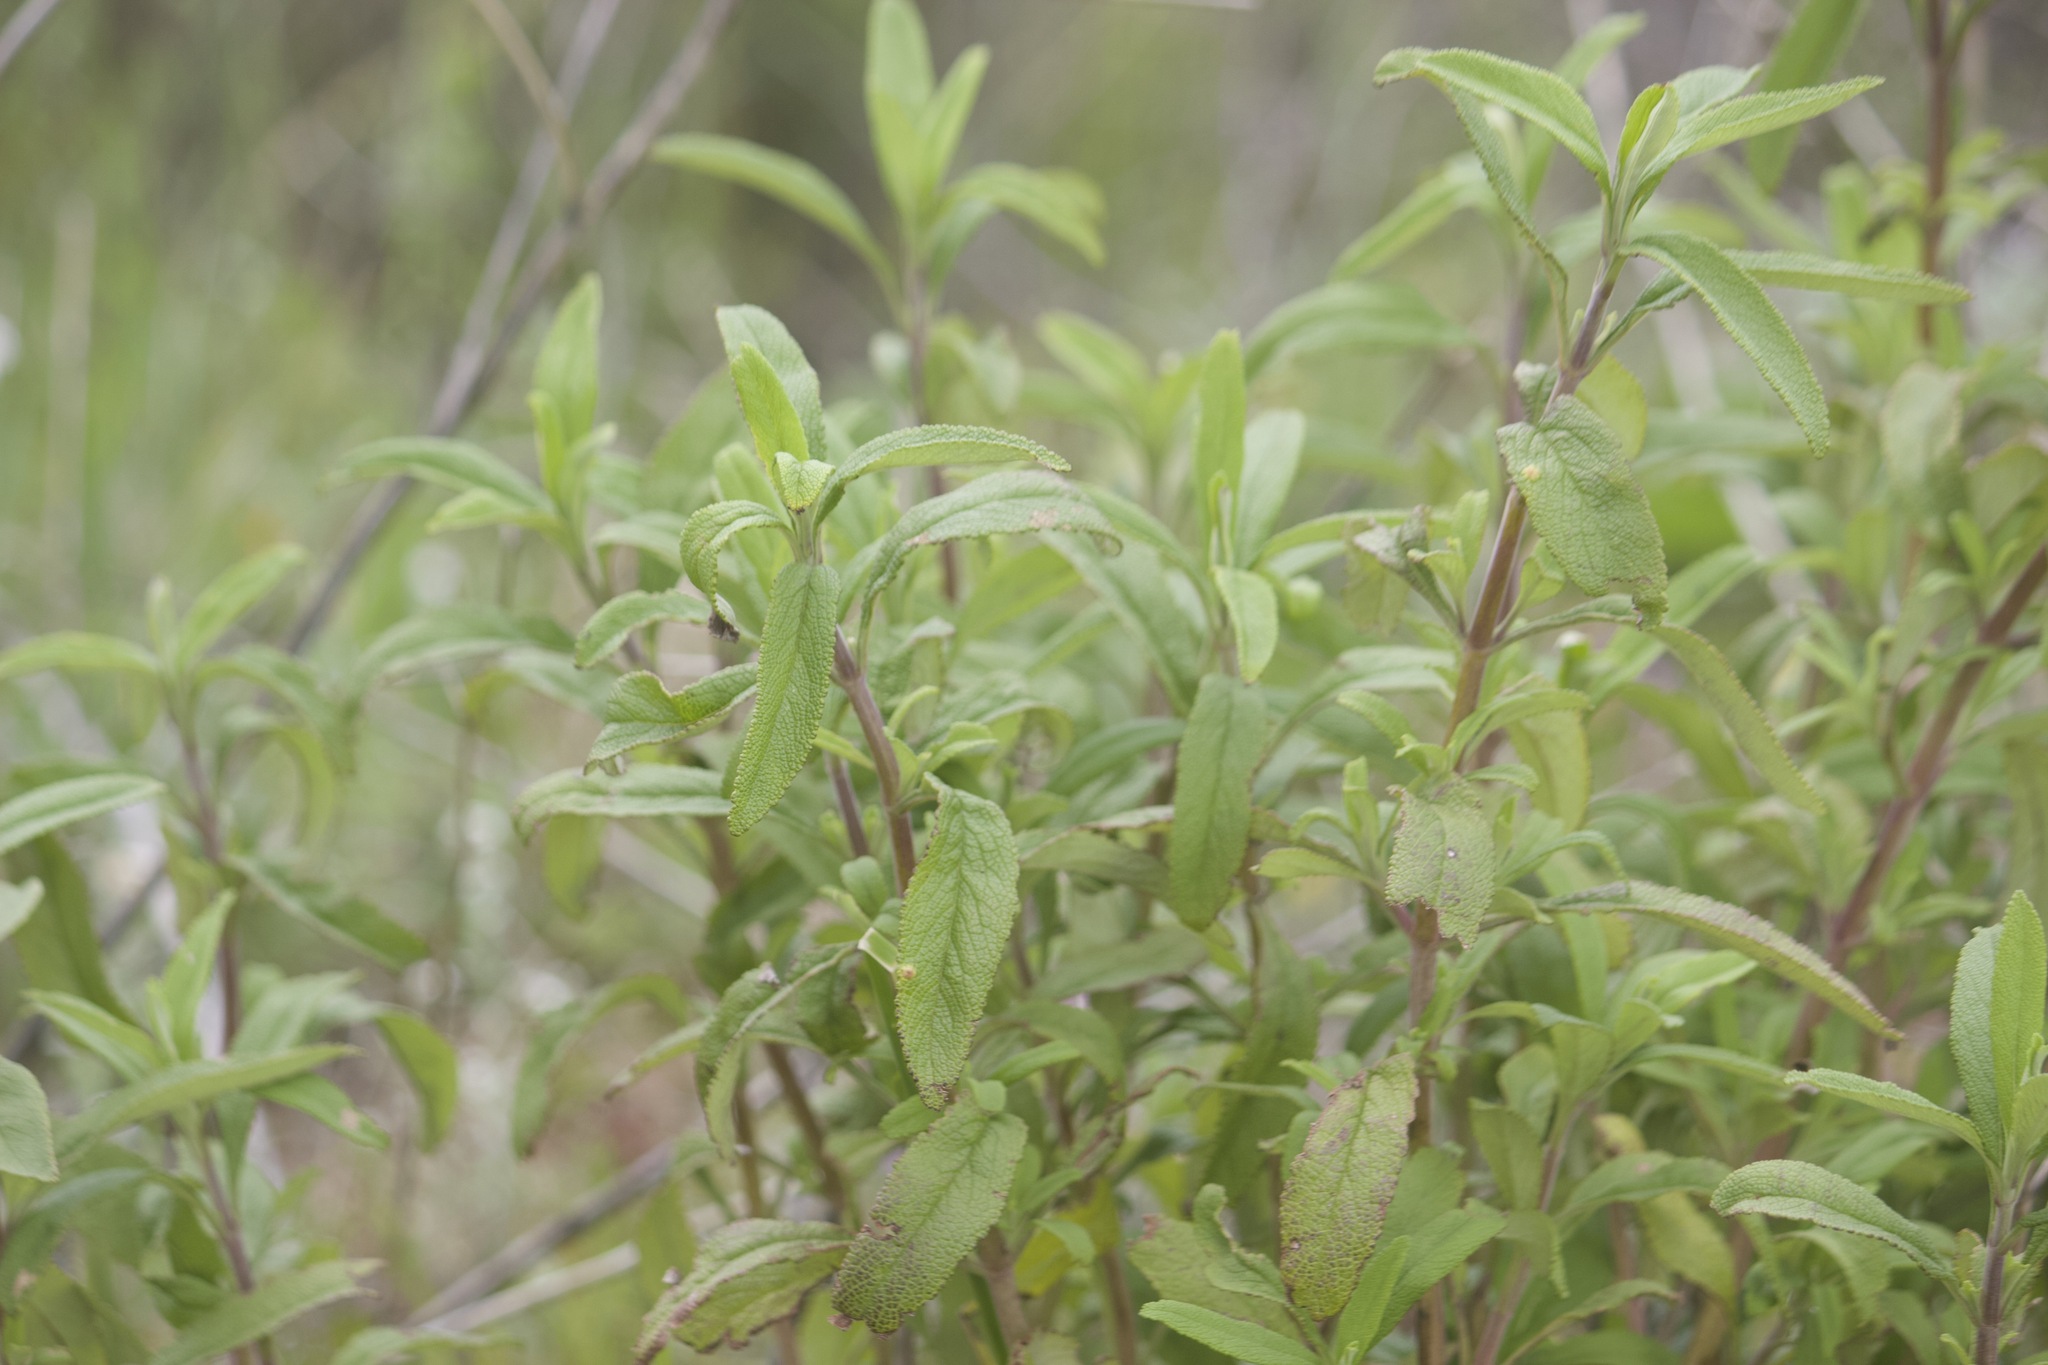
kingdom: Plantae
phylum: Tracheophyta
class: Magnoliopsida
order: Lamiales
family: Lamiaceae
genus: Salvia
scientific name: Salvia mellifera
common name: Black sage
